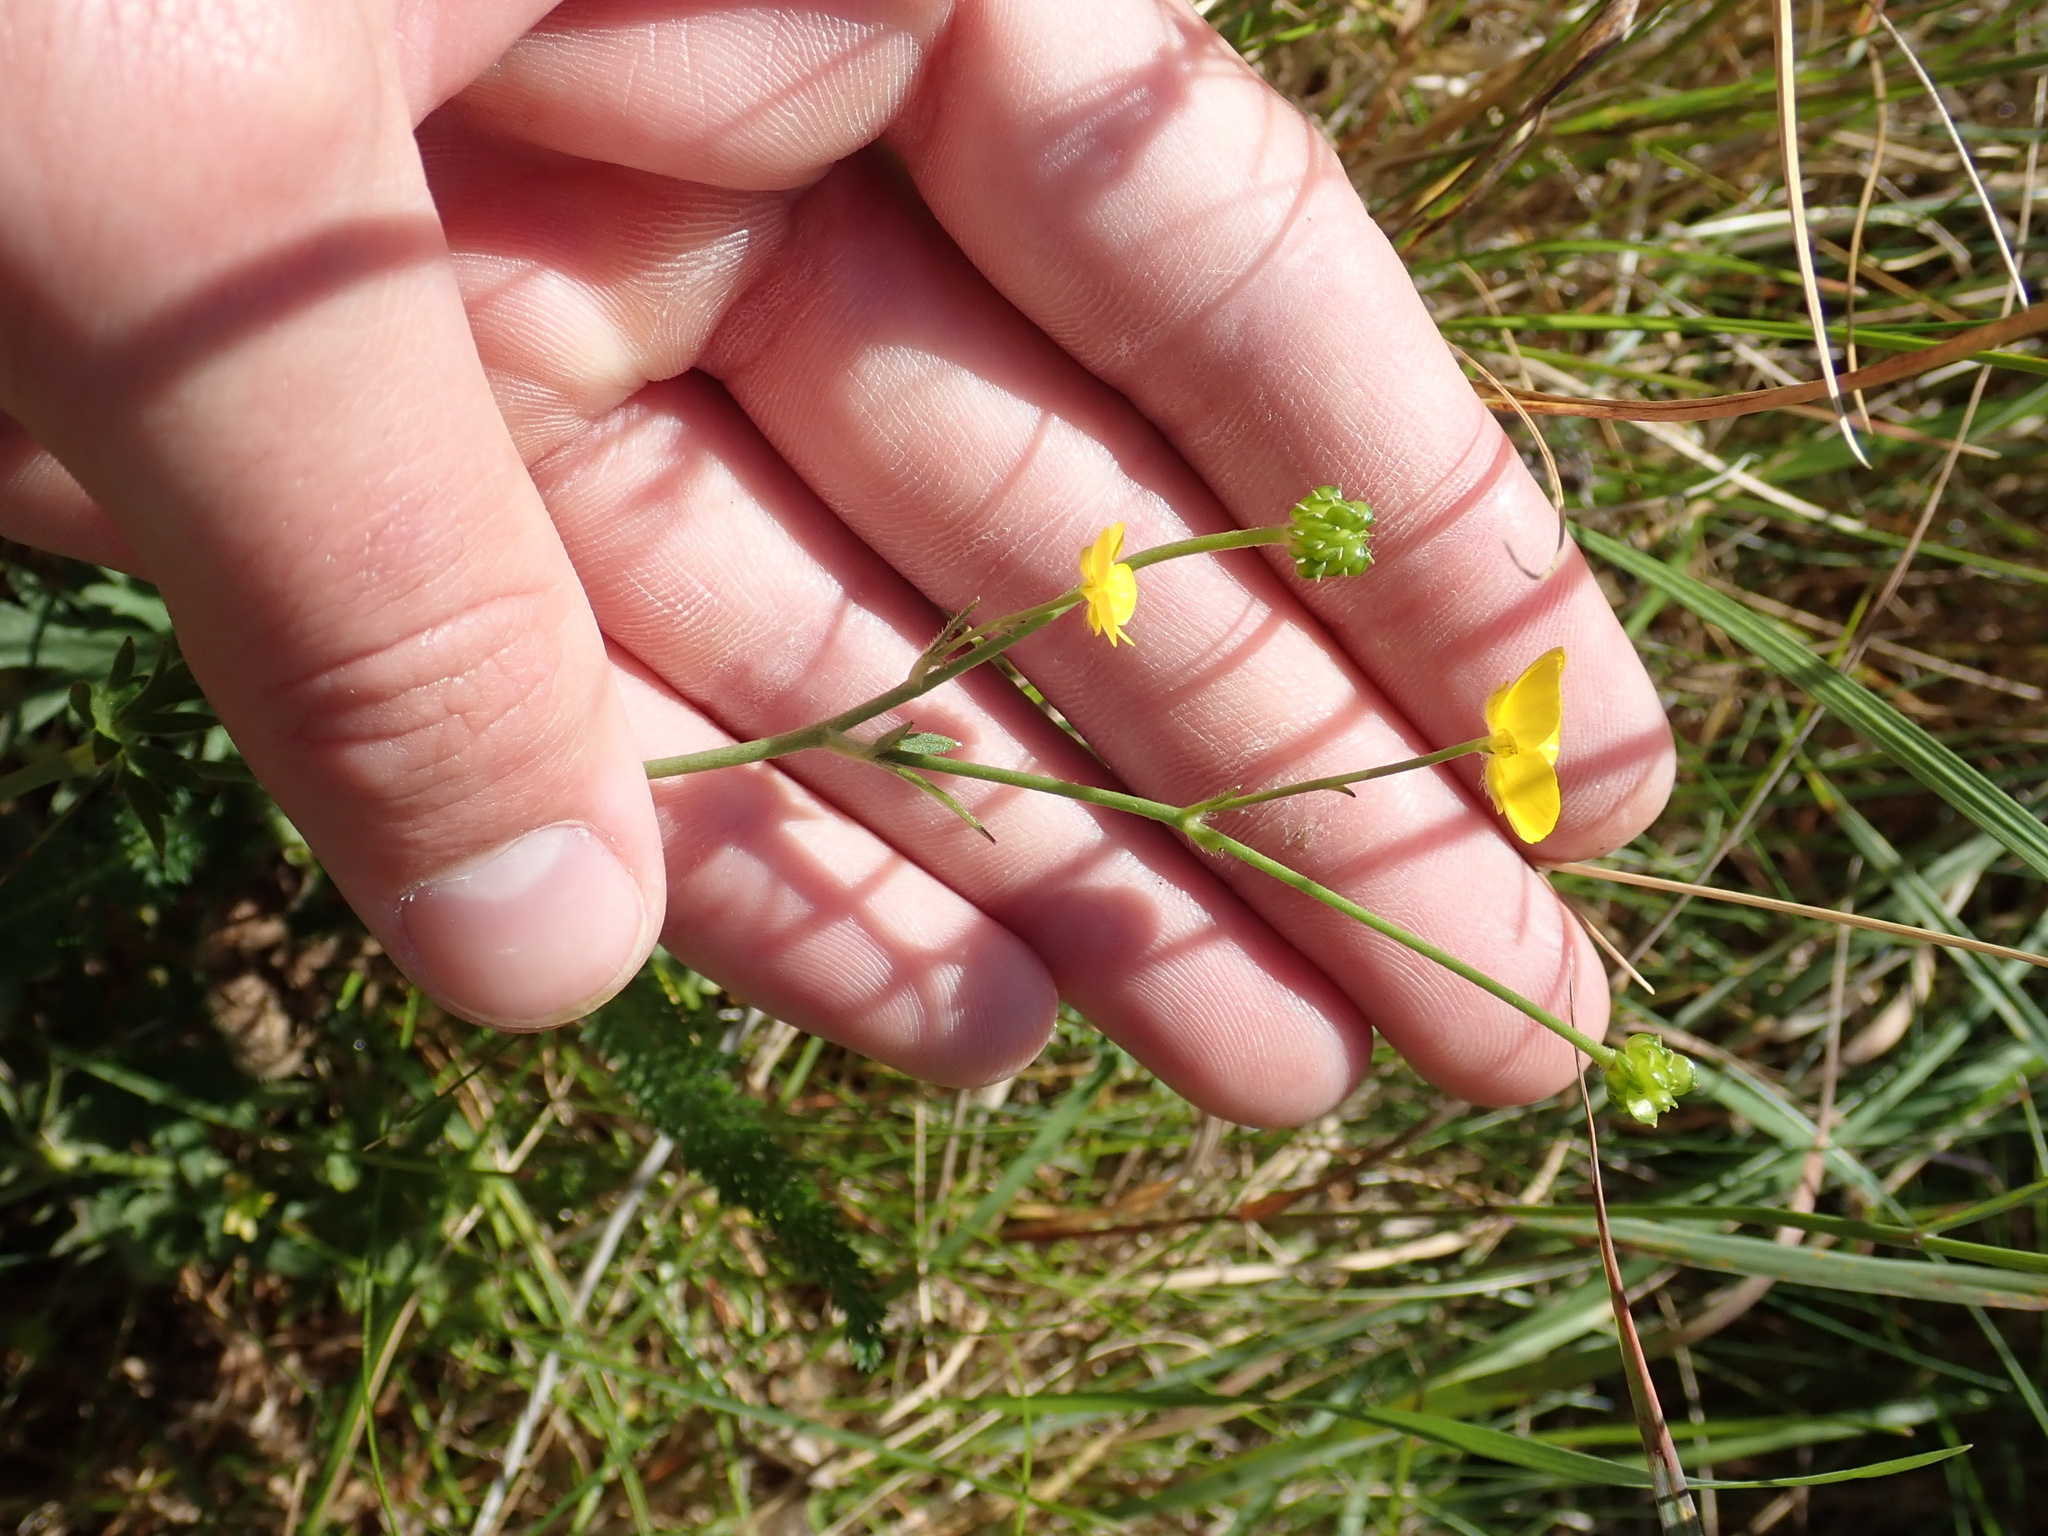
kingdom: Plantae
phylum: Tracheophyta
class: Magnoliopsida
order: Ranunculales
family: Ranunculaceae
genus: Ranunculus
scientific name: Ranunculus acris
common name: Meadow buttercup
